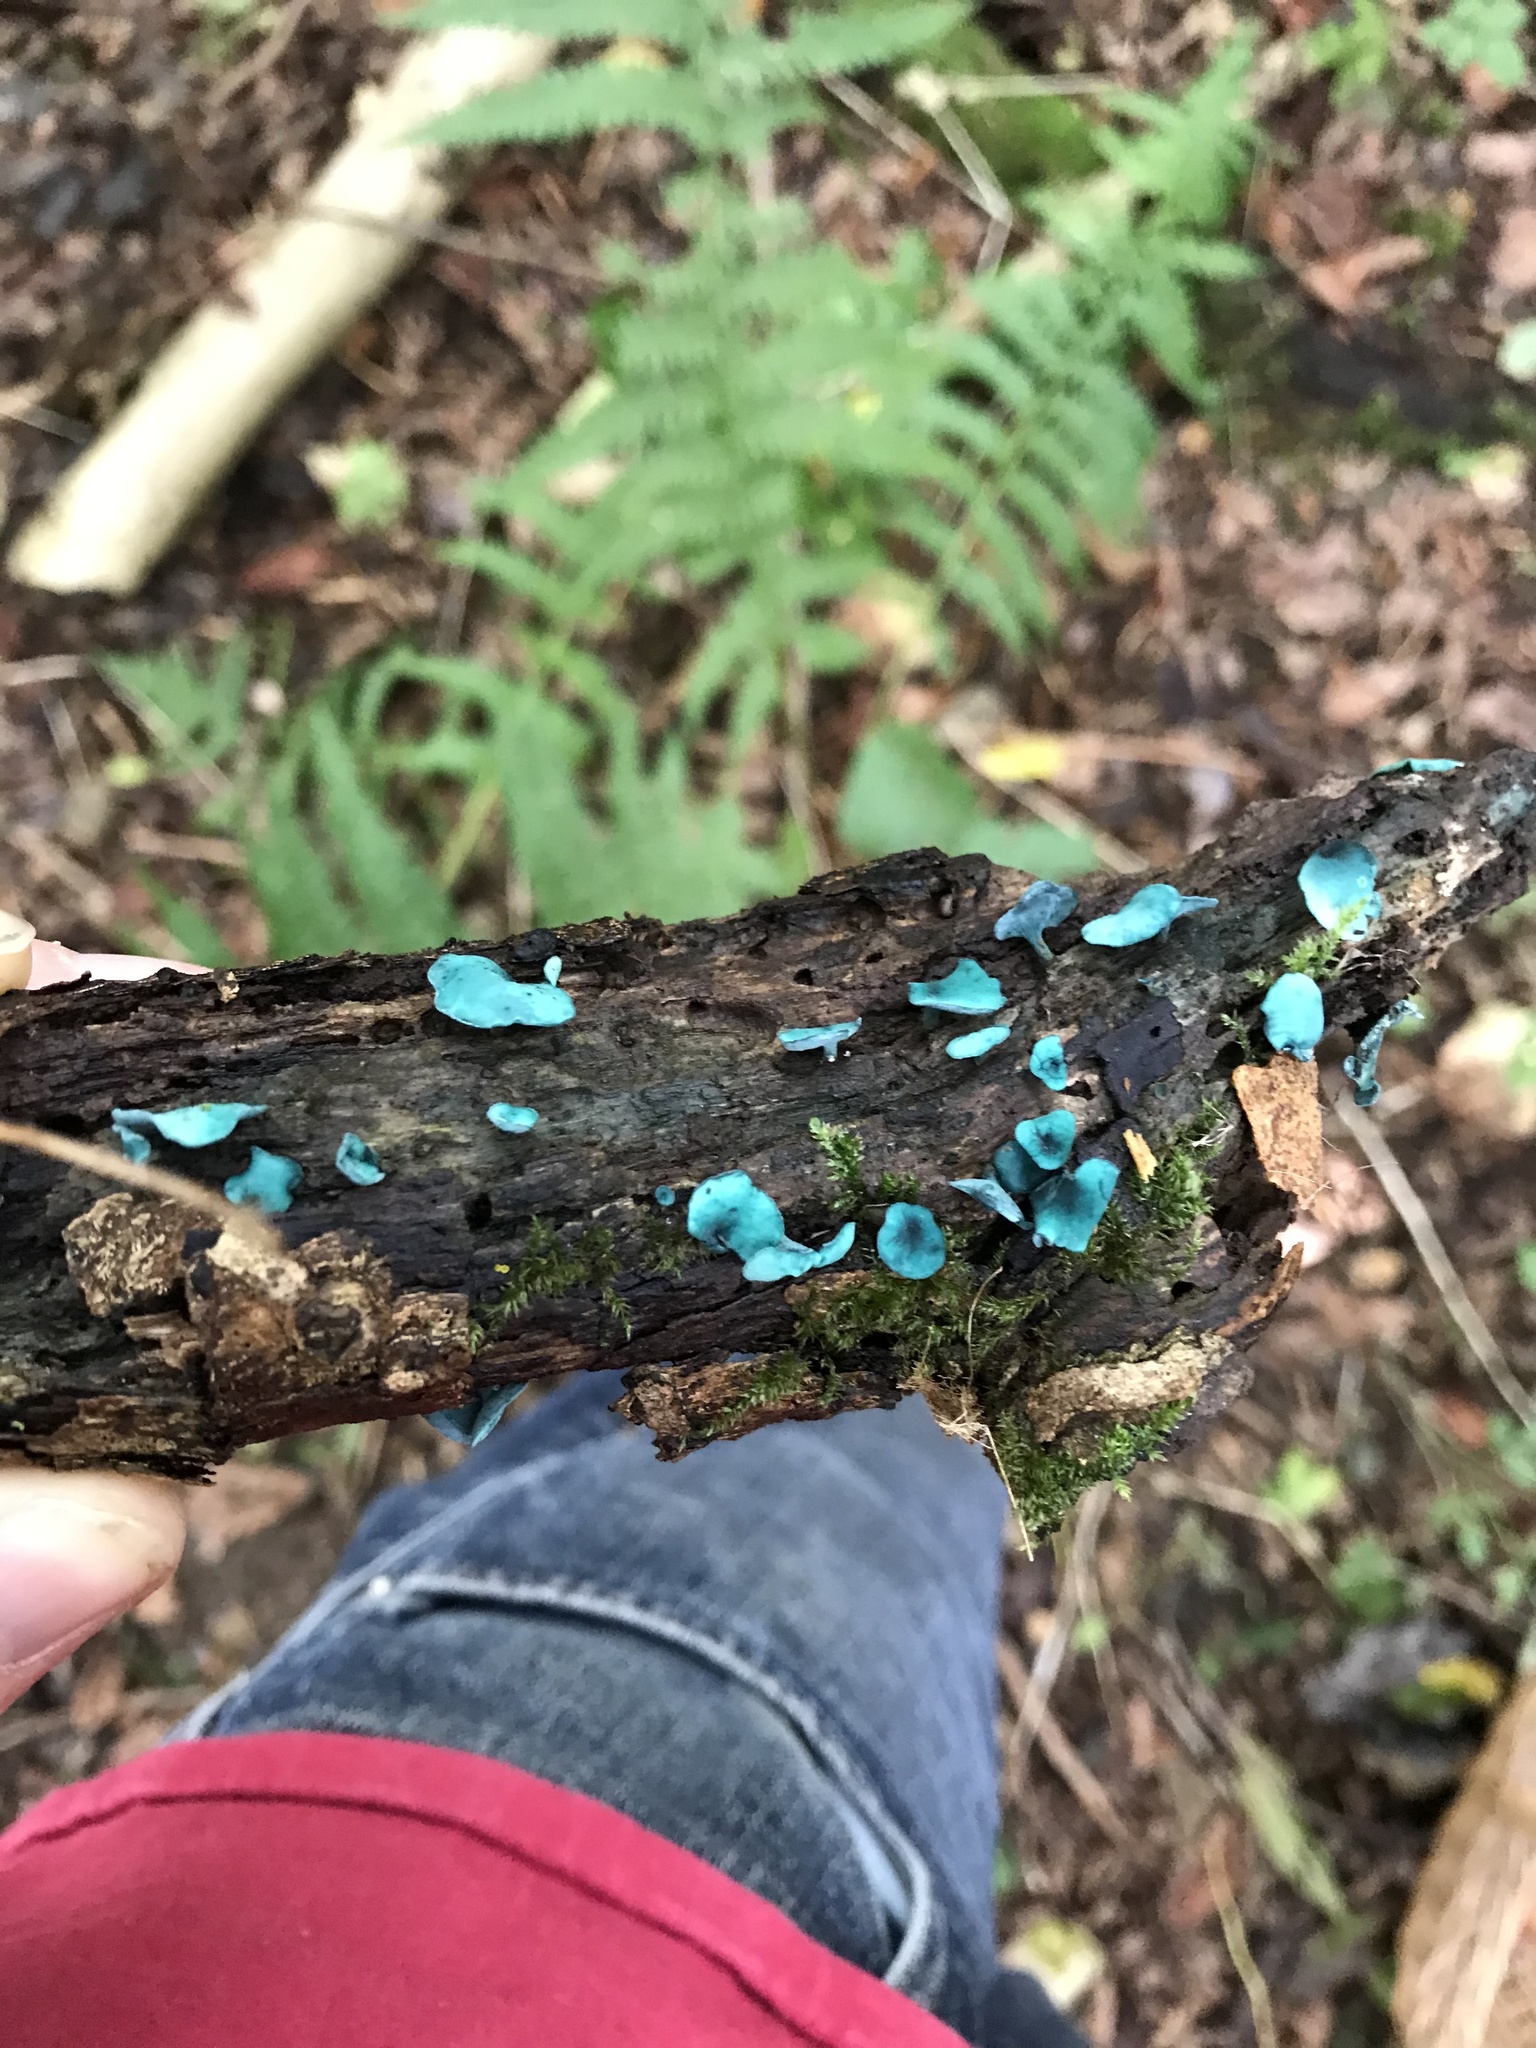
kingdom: Fungi
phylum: Ascomycota
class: Leotiomycetes
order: Helotiales
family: Chlorociboriaceae
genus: Chlorociboria
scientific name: Chlorociboria aeruginascens
